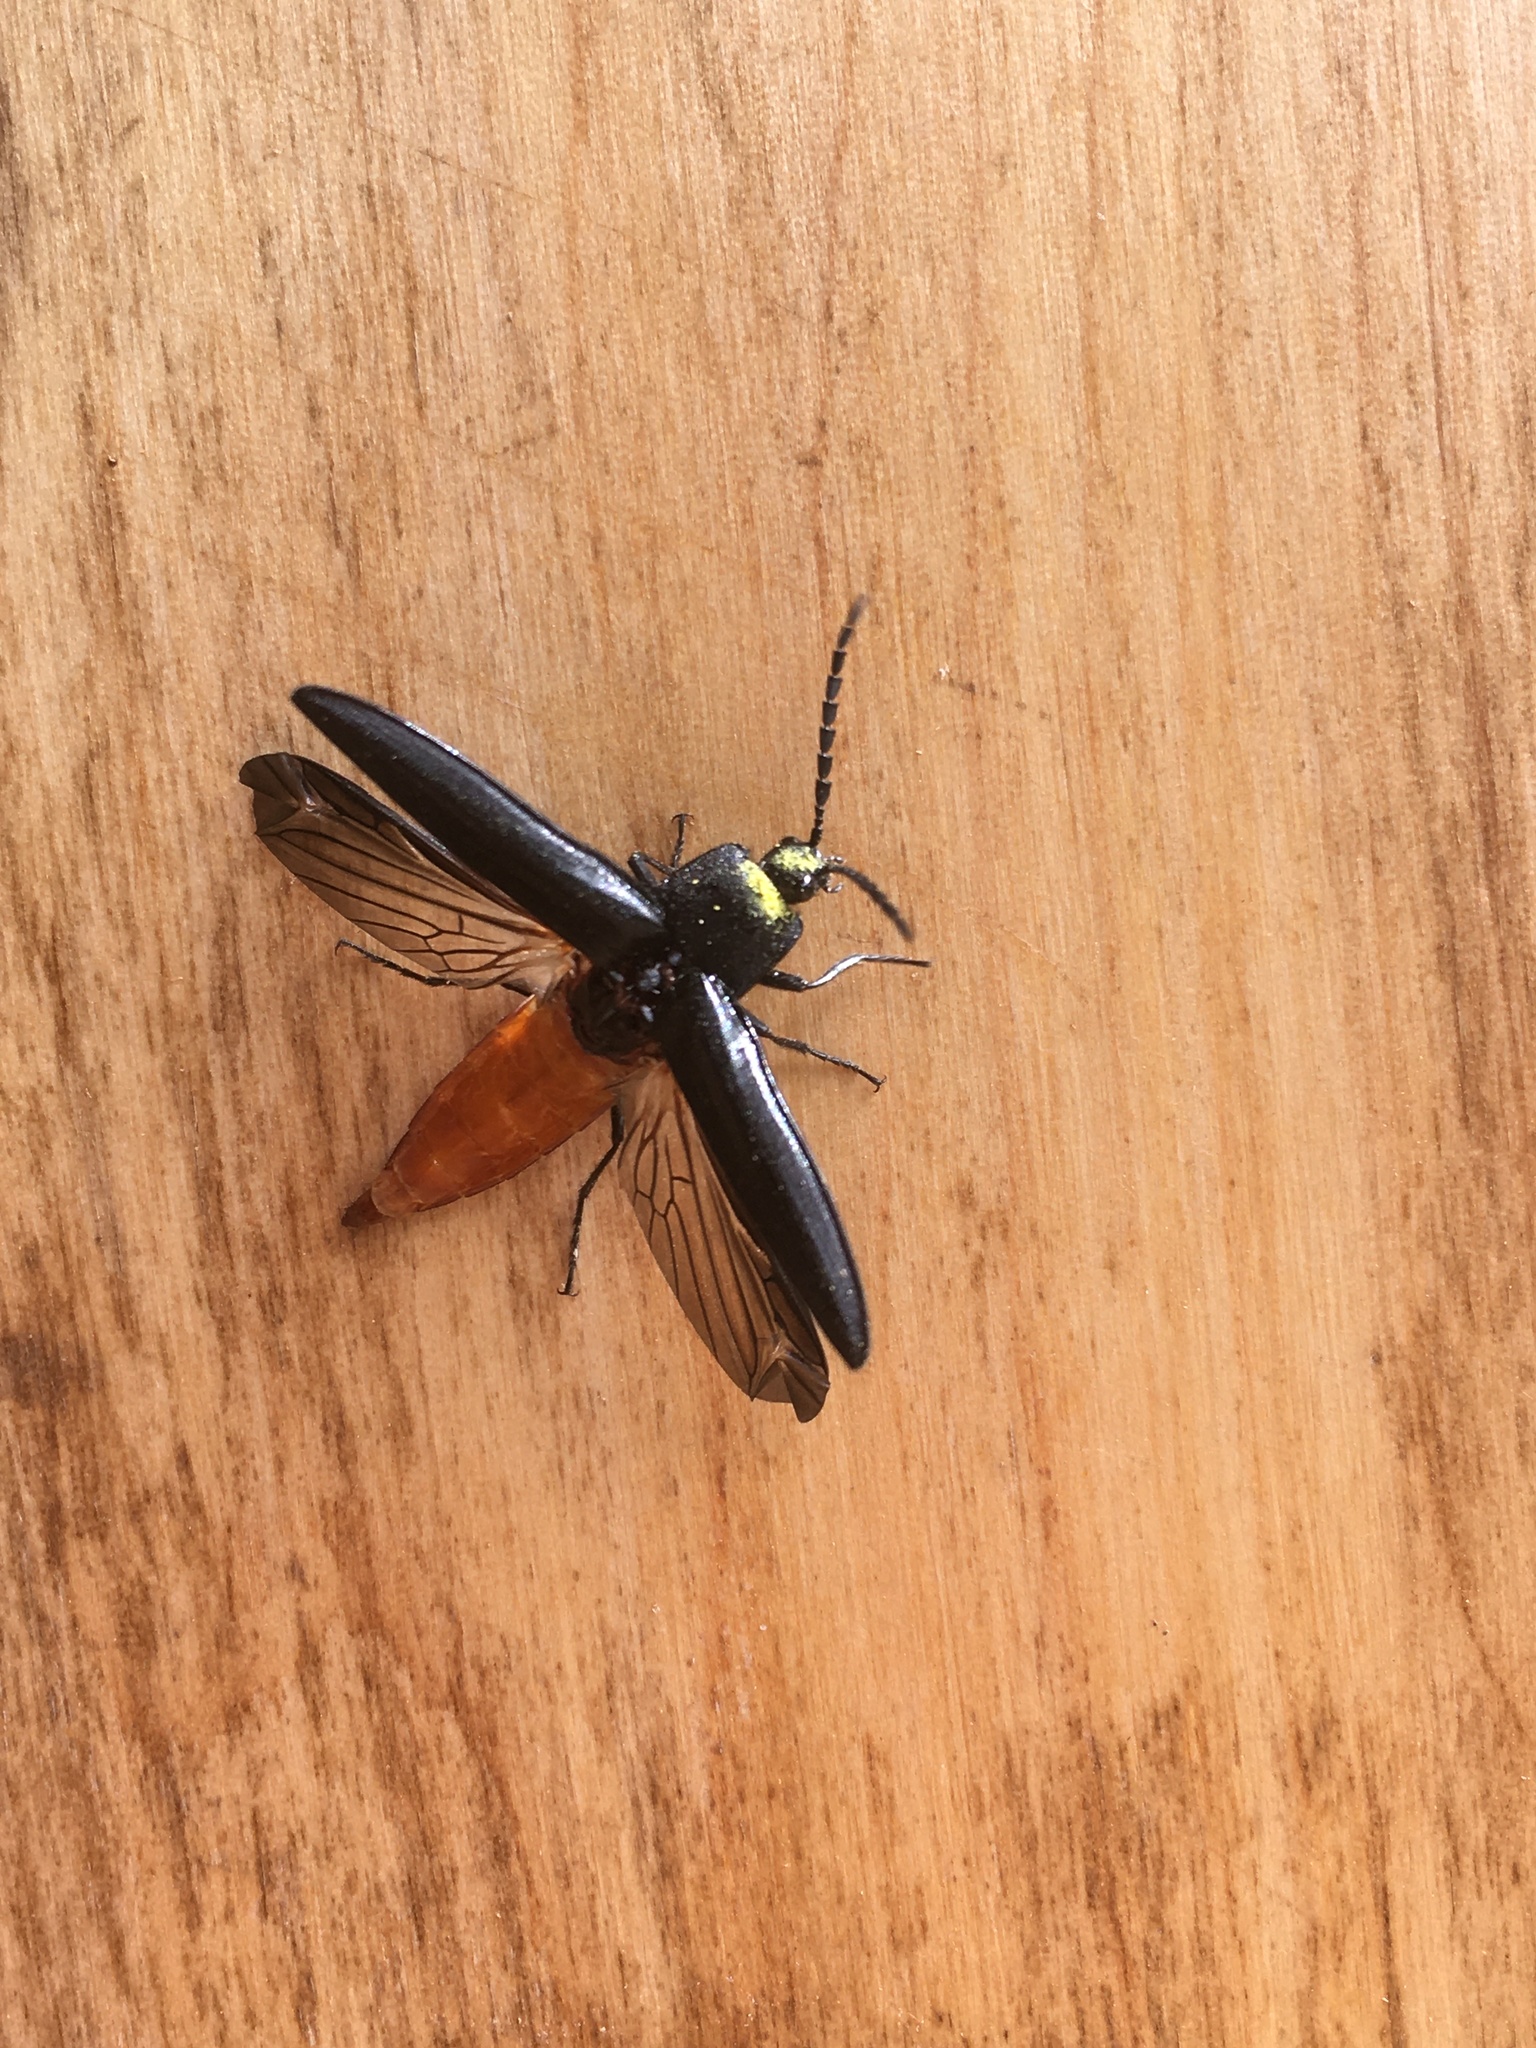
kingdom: Animalia
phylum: Arthropoda
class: Insecta
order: Coleoptera
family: Elateridae
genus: Tibionema
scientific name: Tibionema
